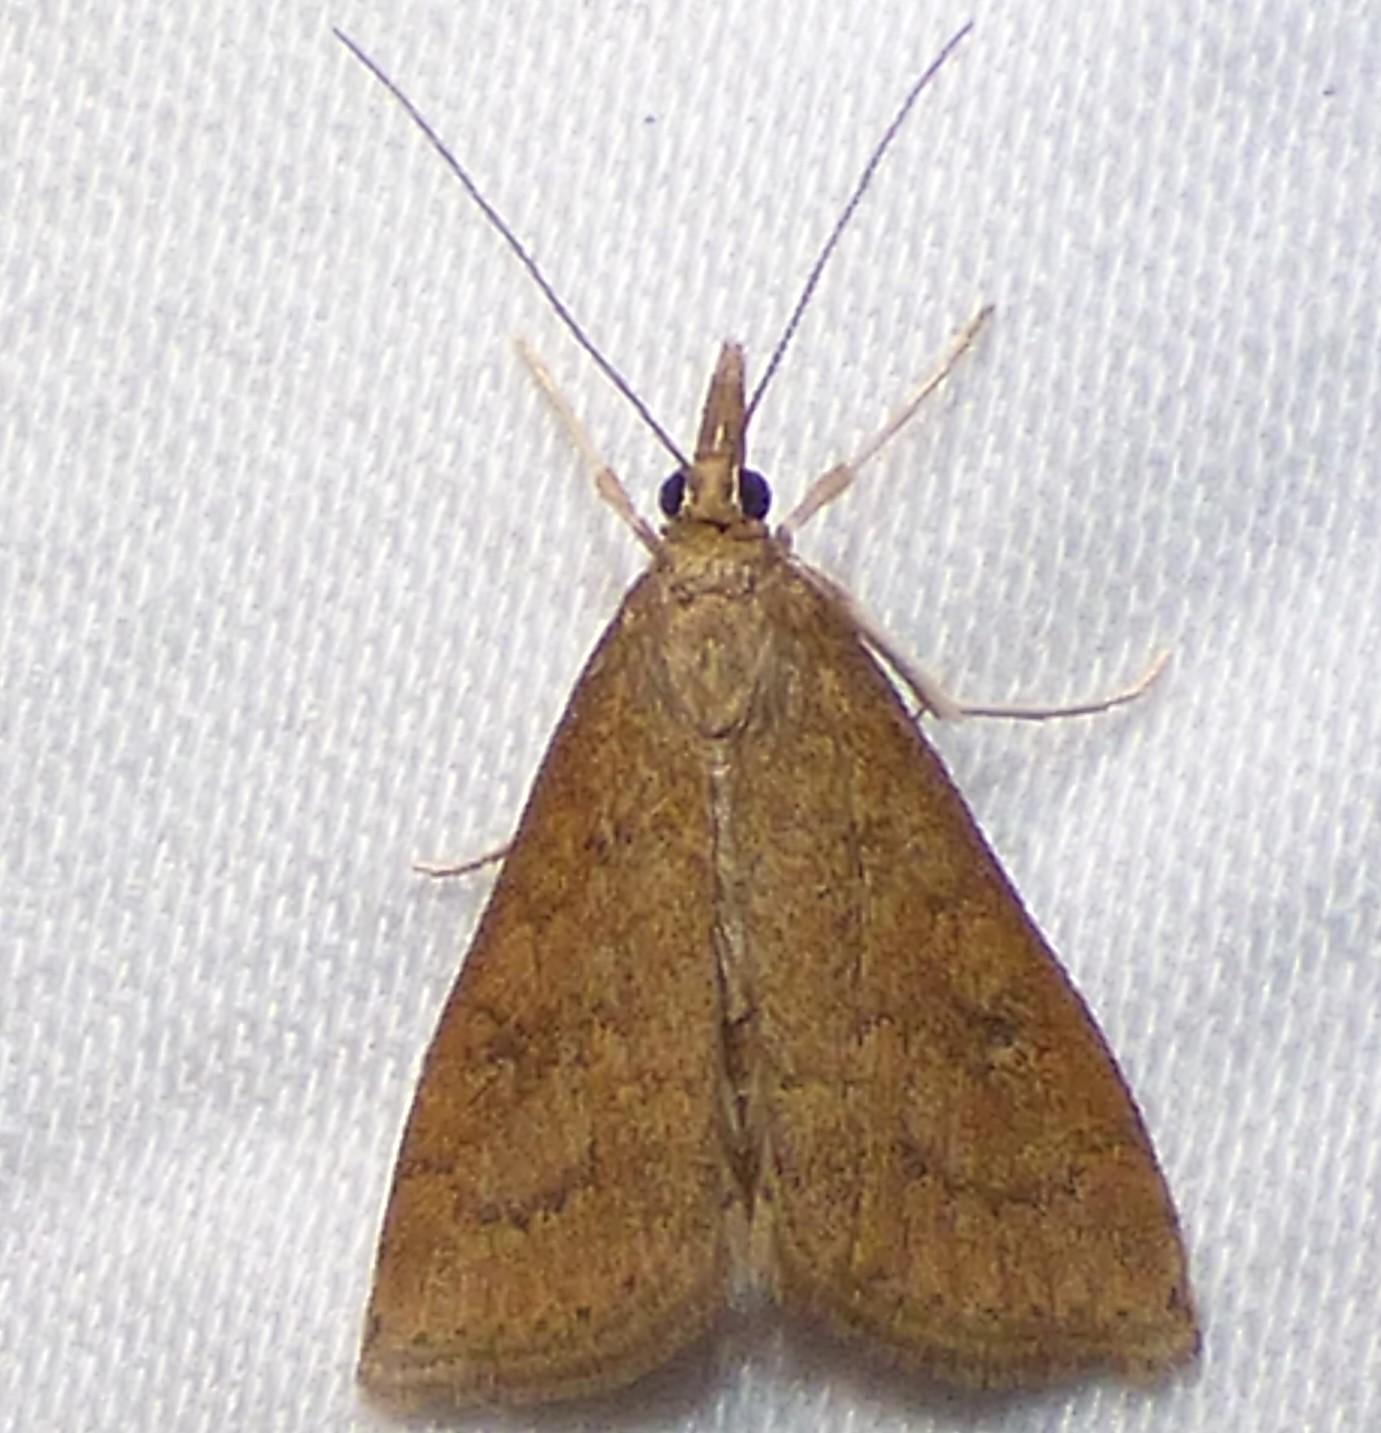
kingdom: Animalia
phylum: Arthropoda
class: Insecta
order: Lepidoptera
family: Crambidae
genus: Udea
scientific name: Udea rubigalis
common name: Celery leaftier moth
